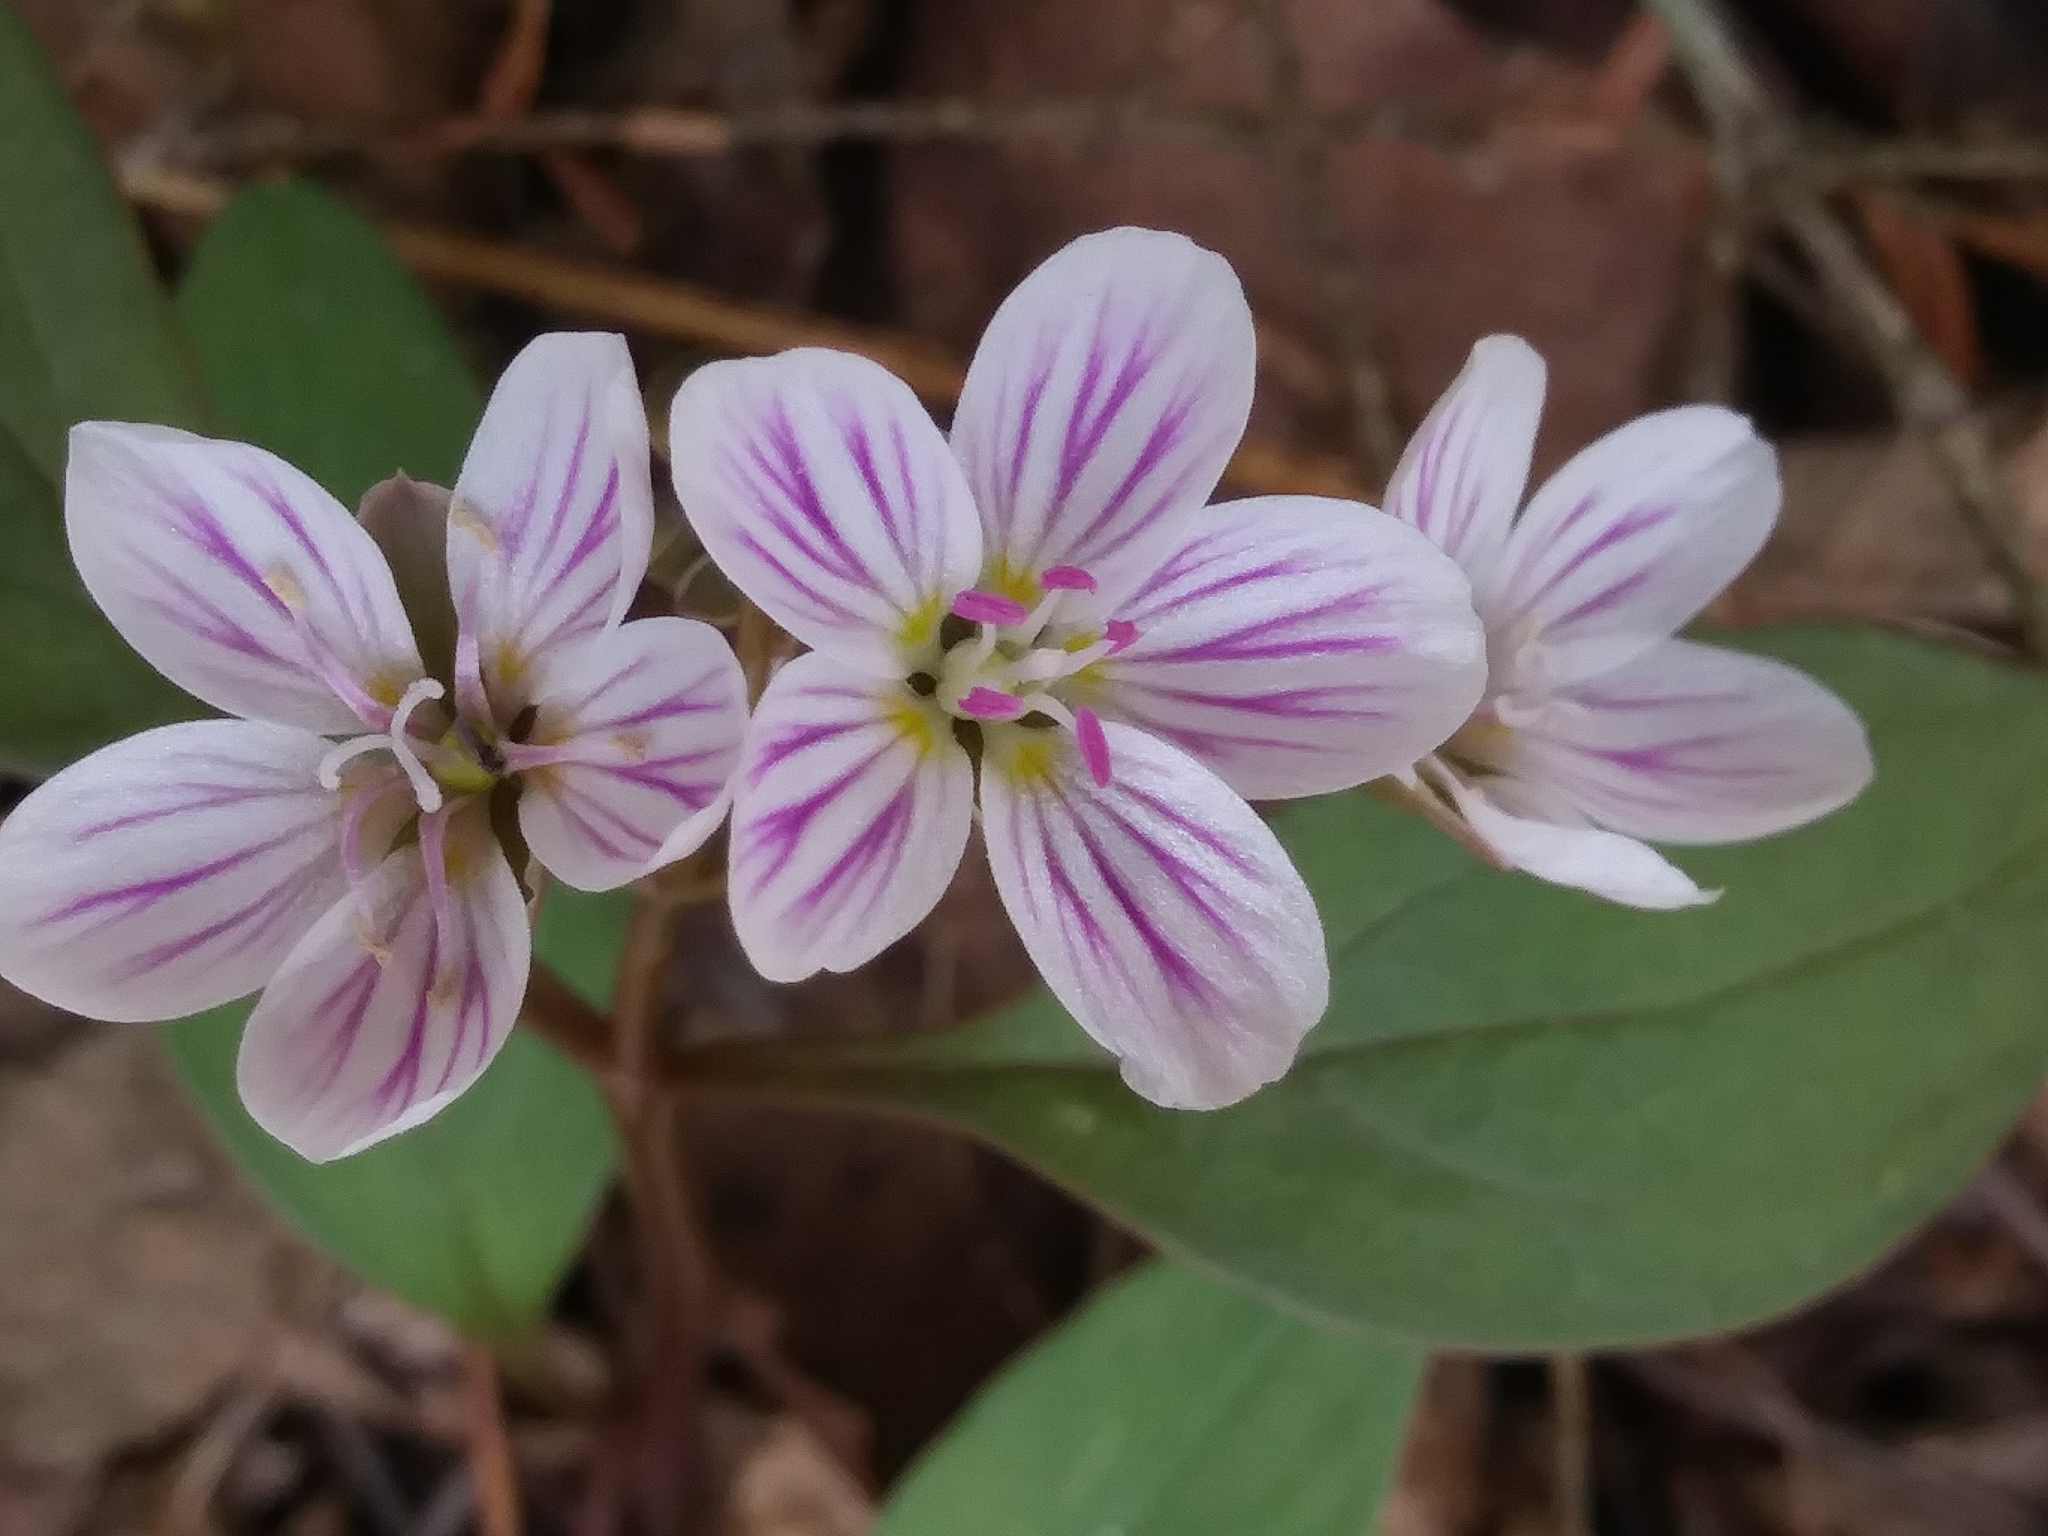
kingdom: Plantae
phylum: Tracheophyta
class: Magnoliopsida
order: Caryophyllales
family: Montiaceae
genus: Claytonia
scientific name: Claytonia caroliniana
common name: Carolina spring beauty
